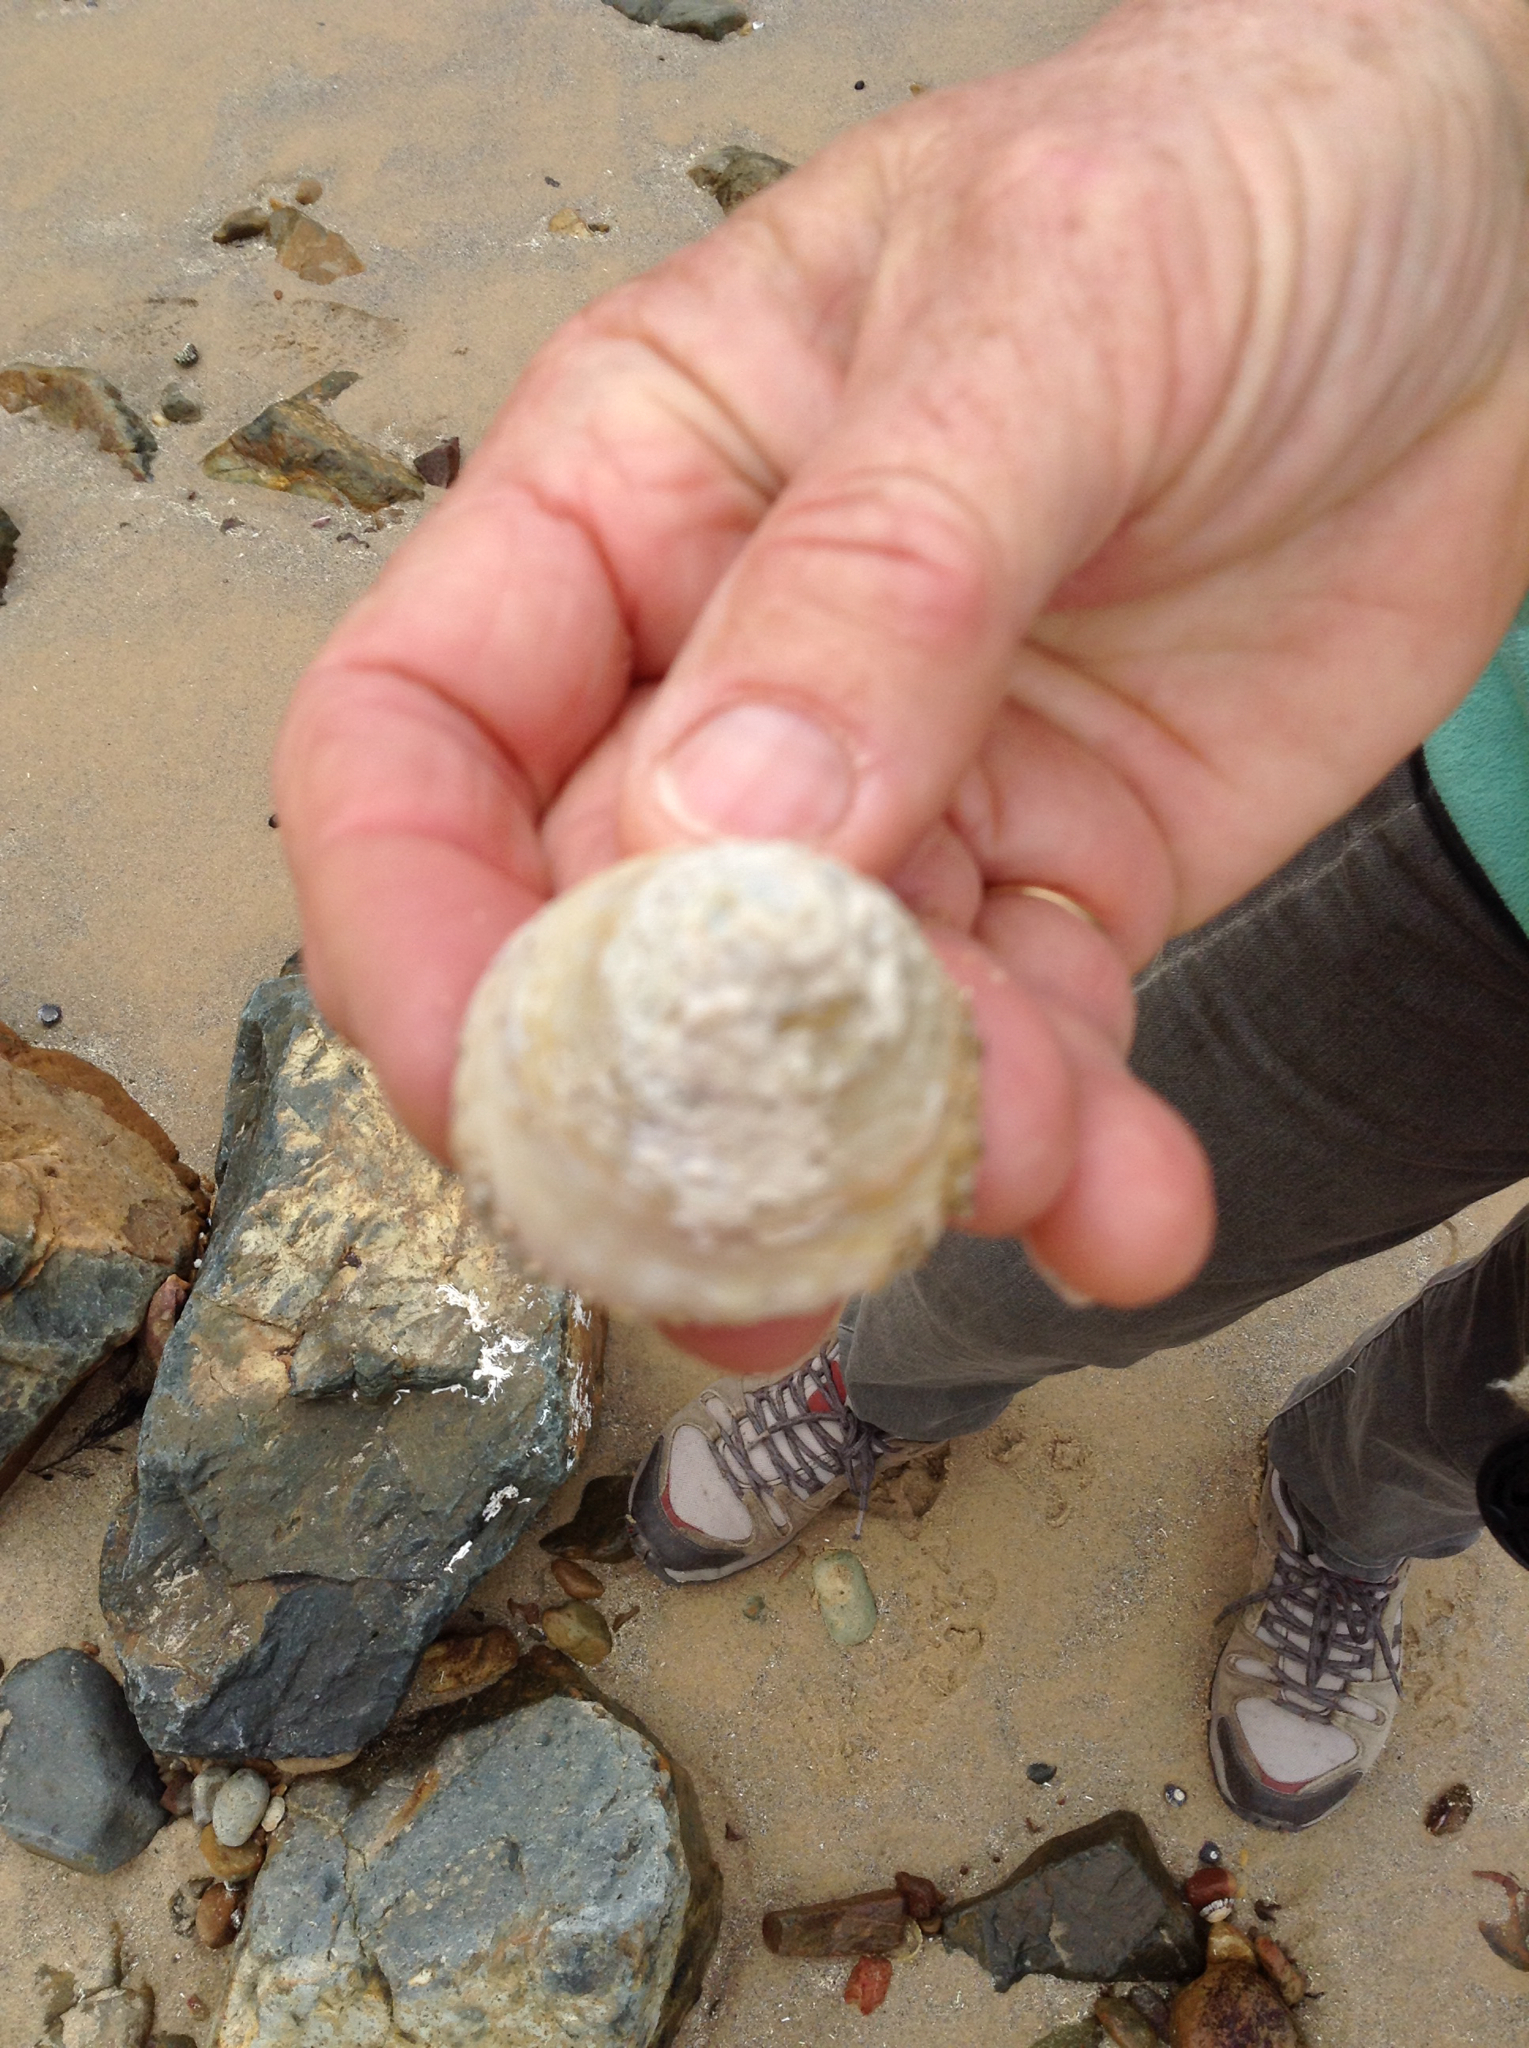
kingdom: Animalia
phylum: Mollusca
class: Gastropoda
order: Trochida
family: Turbinidae
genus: Astralium
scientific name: Astralium tentoriiforme
